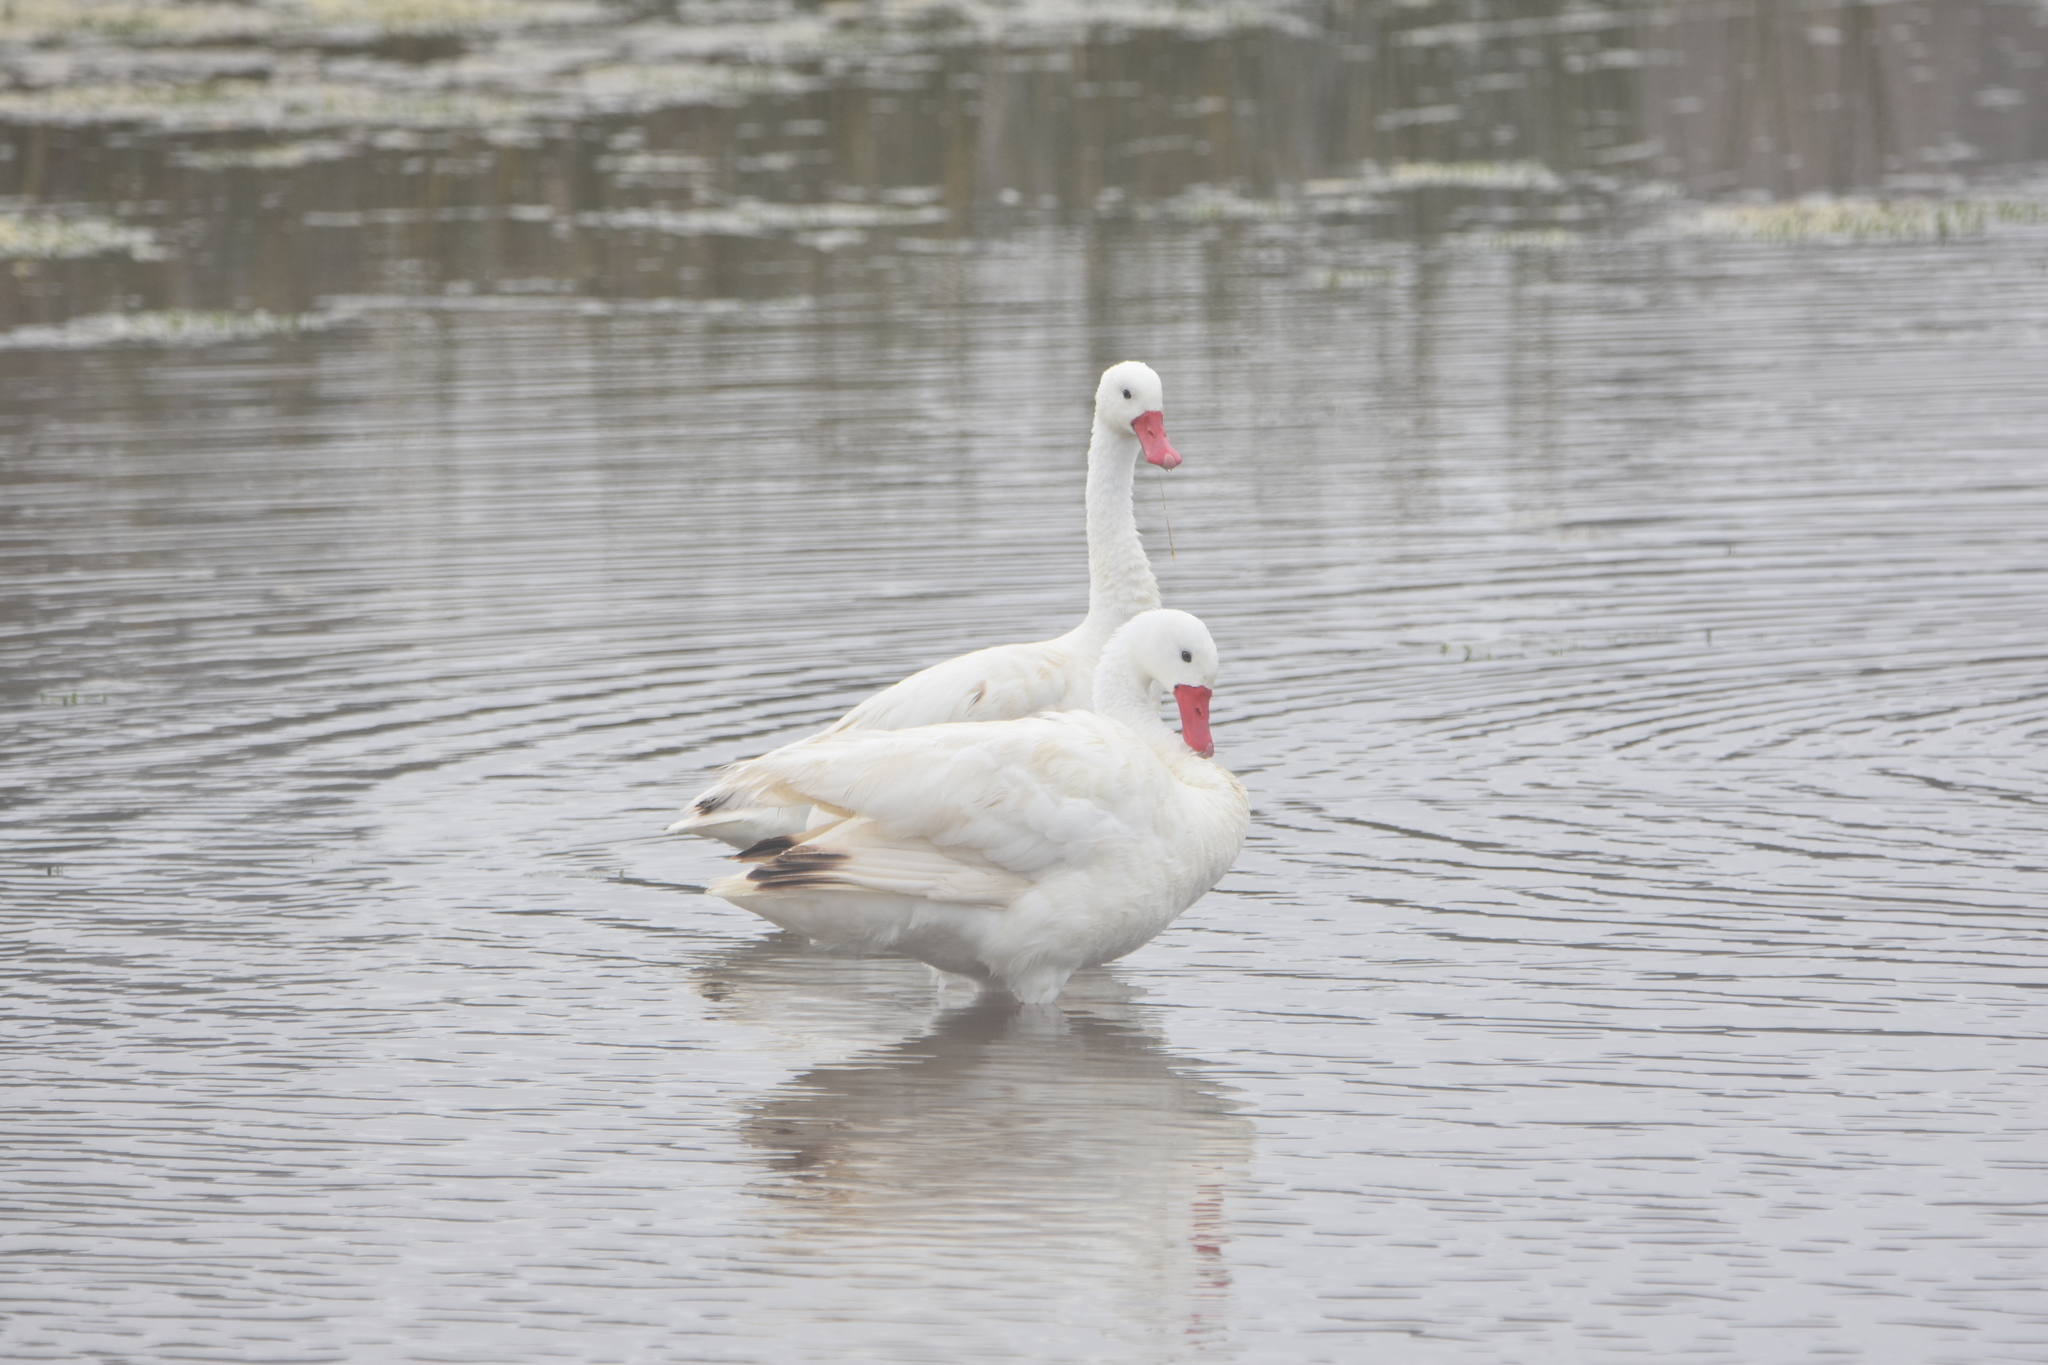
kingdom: Animalia
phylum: Chordata
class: Aves
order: Anseriformes
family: Anatidae
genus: Coscoroba
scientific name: Coscoroba coscoroba
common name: Coscoroba swan
